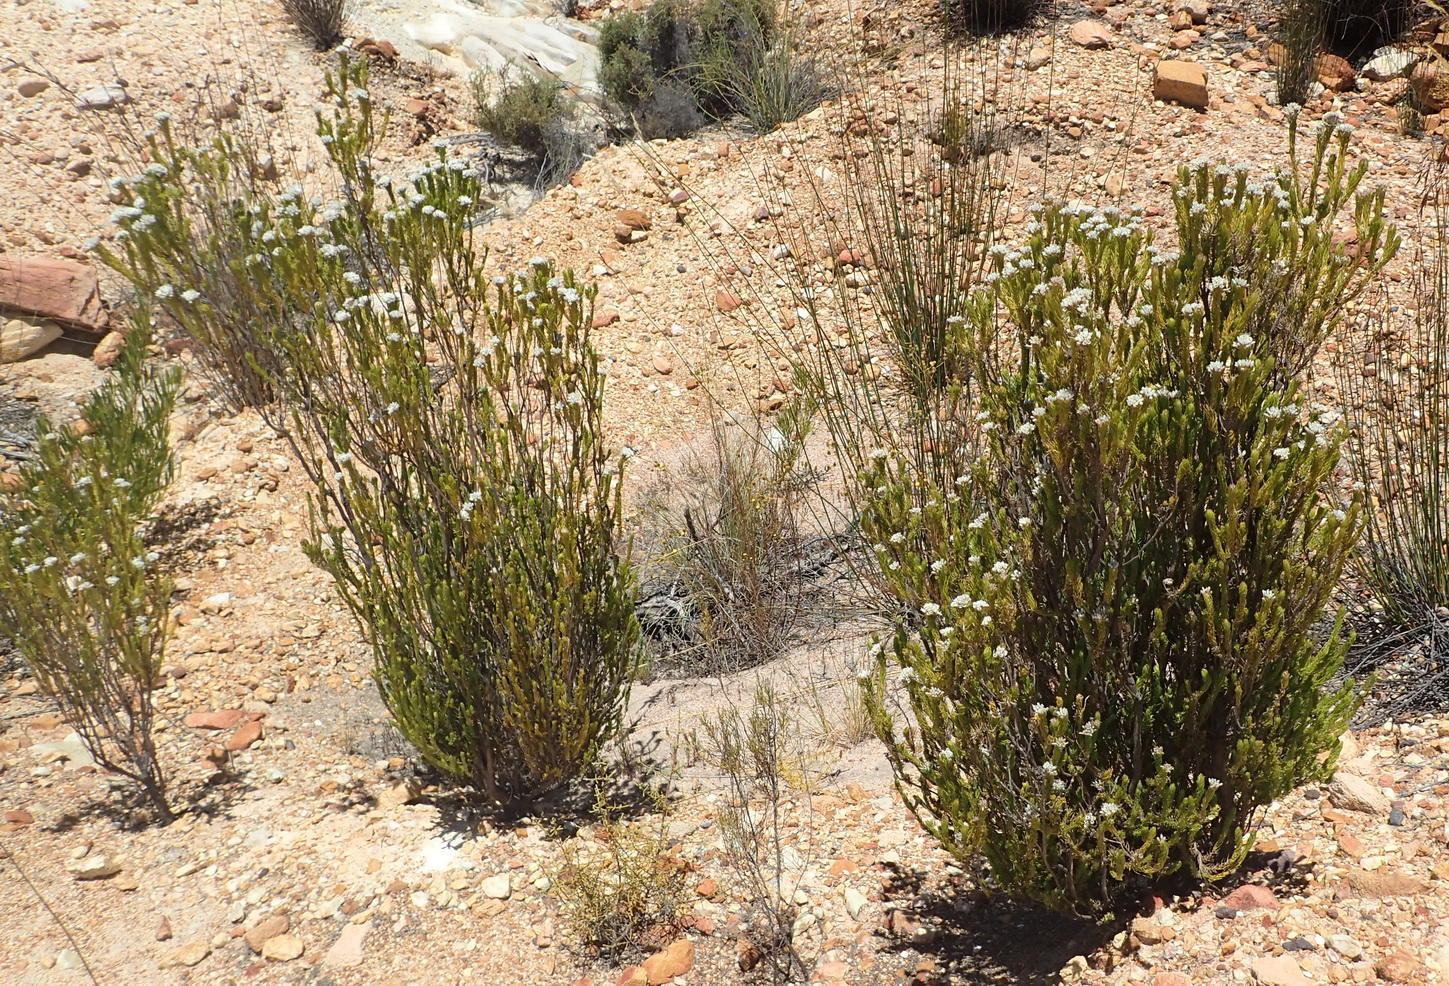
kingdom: Plantae
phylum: Tracheophyta
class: Magnoliopsida
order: Asterales
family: Asteraceae
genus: Metalasia
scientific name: Metalasia galpinii
